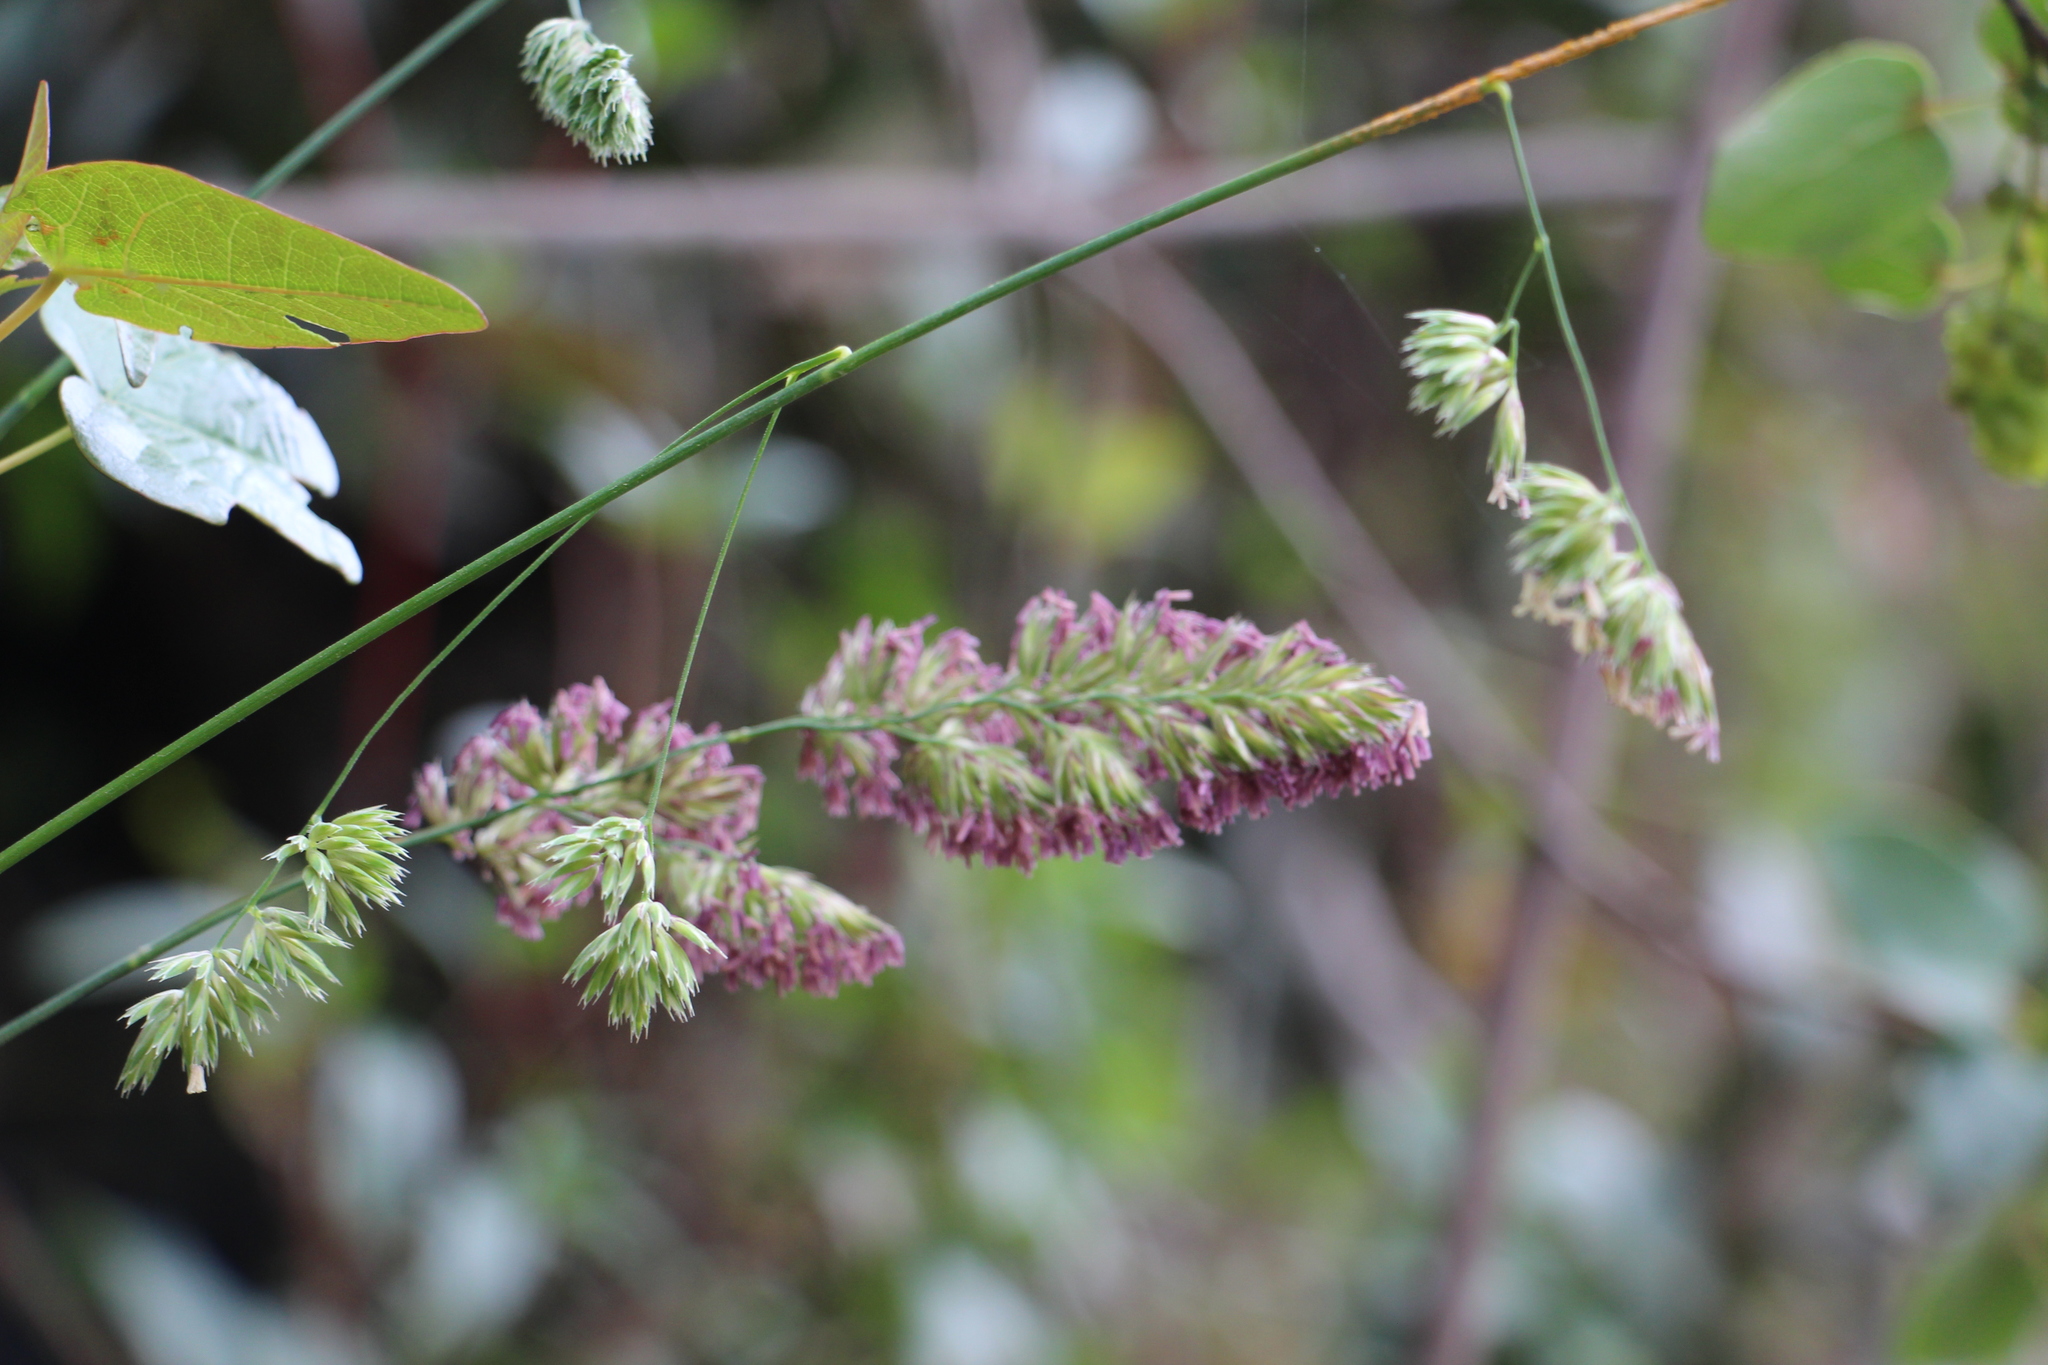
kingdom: Plantae
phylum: Tracheophyta
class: Liliopsida
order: Poales
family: Poaceae
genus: Dactylis
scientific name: Dactylis glomerata
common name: Orchardgrass
